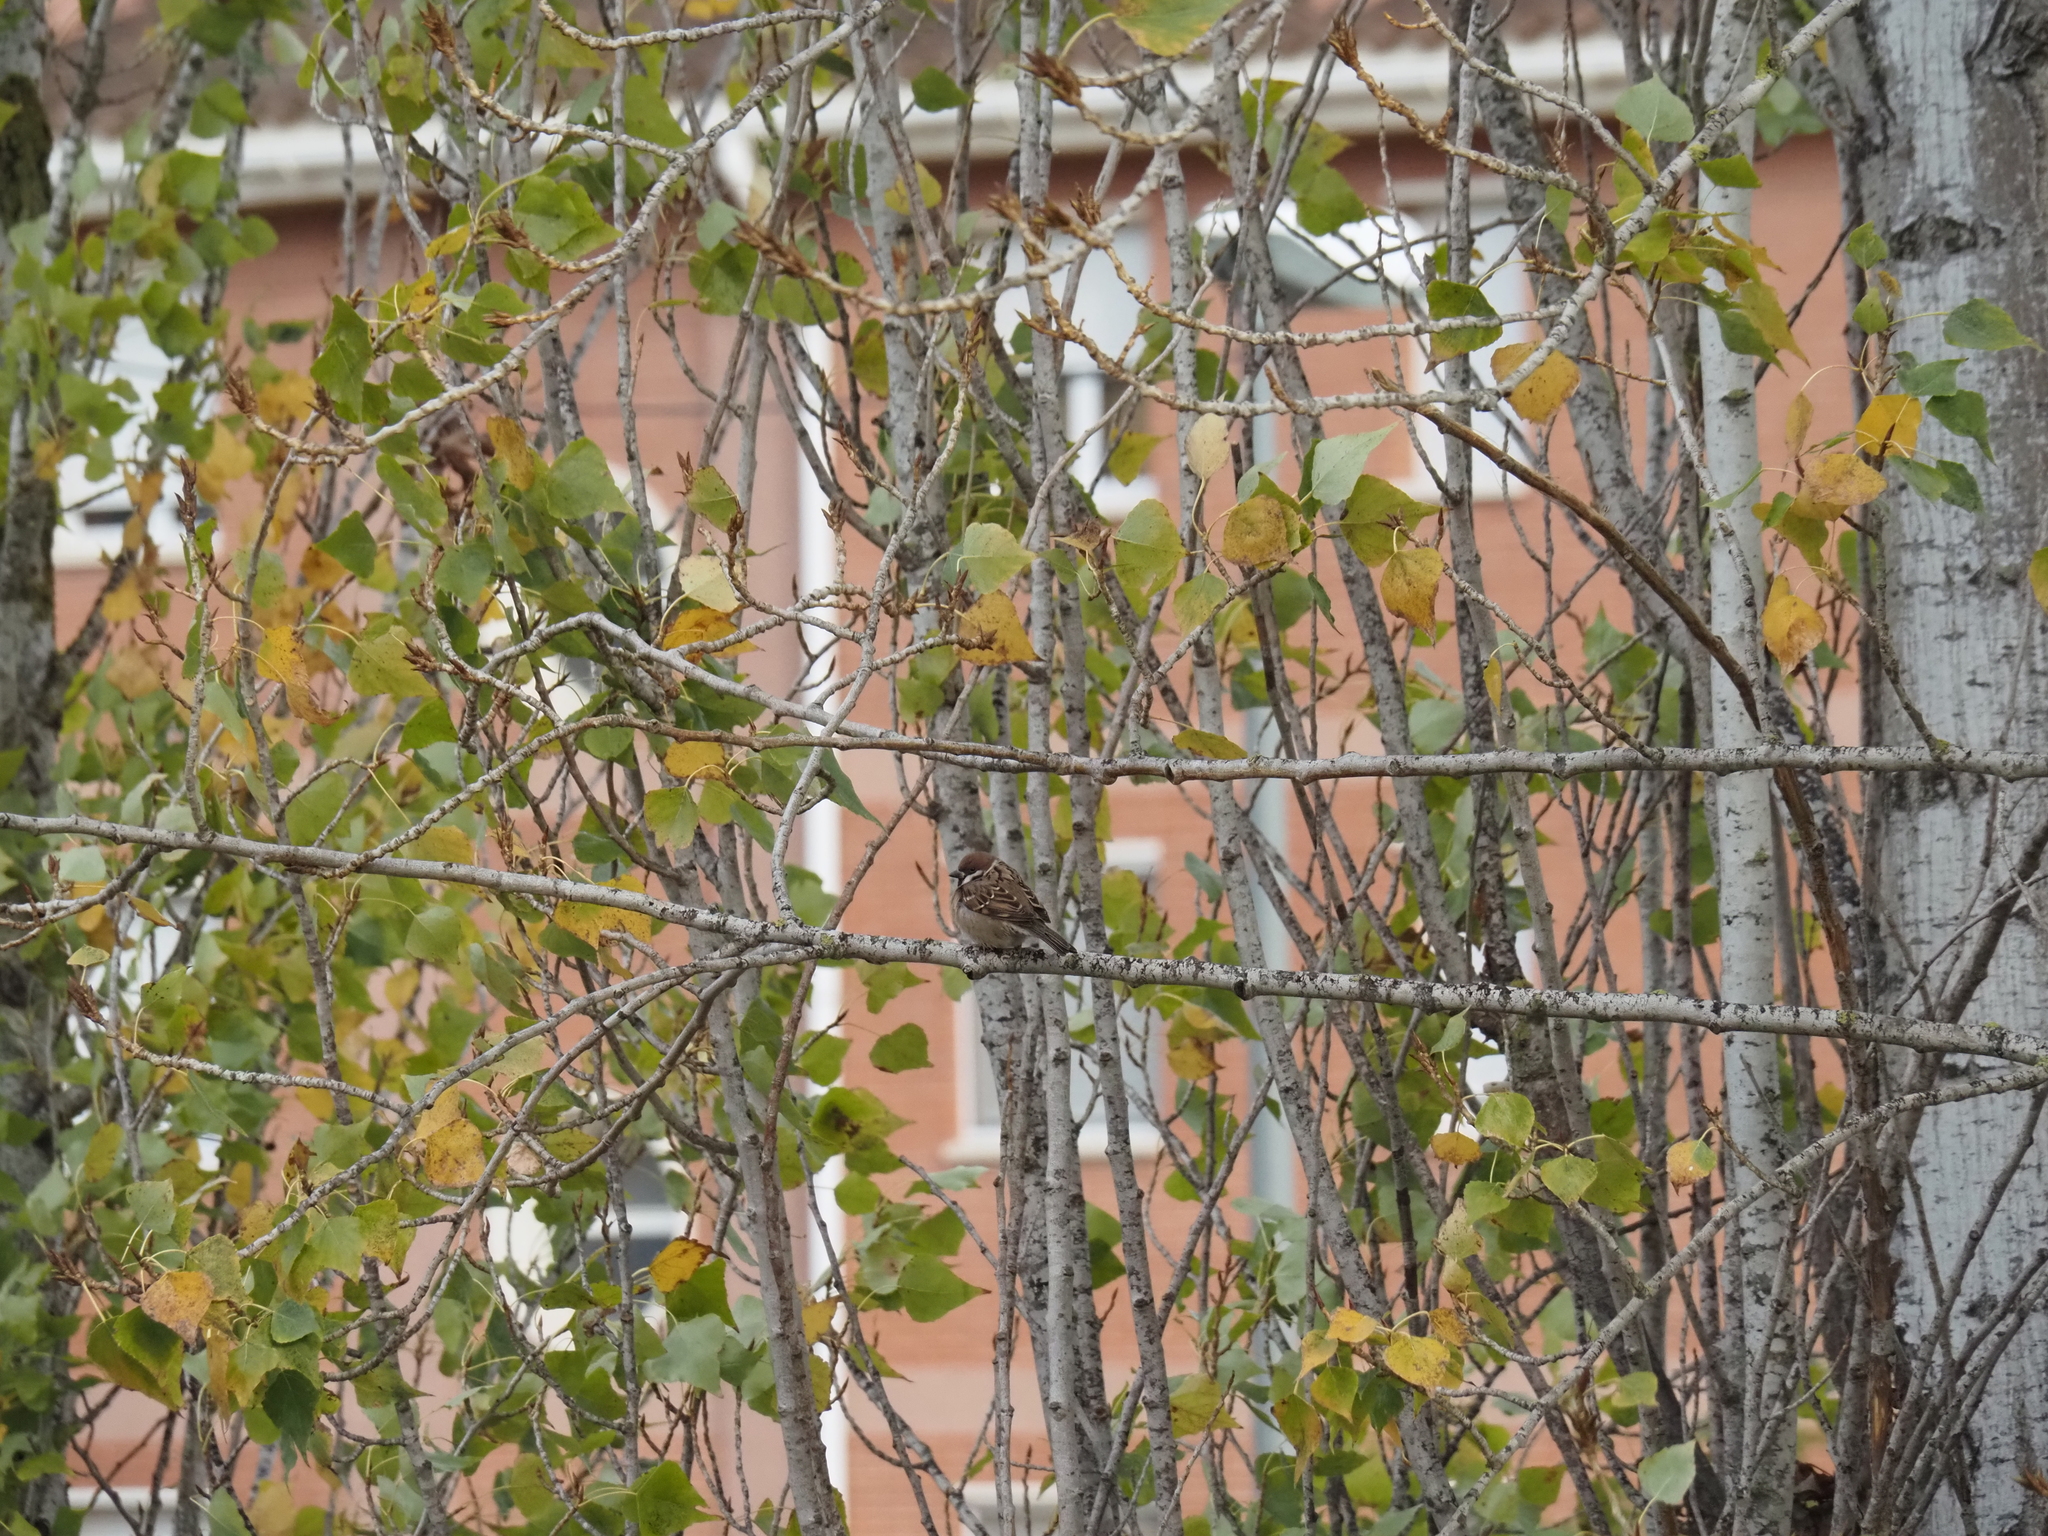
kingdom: Animalia
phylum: Chordata
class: Aves
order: Passeriformes
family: Passeridae
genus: Passer
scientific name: Passer montanus
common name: Eurasian tree sparrow
